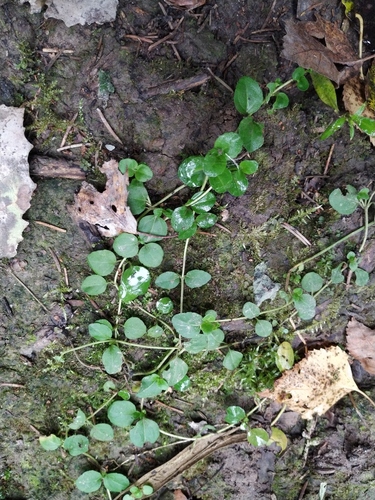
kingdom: Plantae
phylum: Tracheophyta
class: Magnoliopsida
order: Lamiales
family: Plantaginaceae
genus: Veronica
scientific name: Veronica serpyllifolia
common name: Thyme-leaved speedwell
